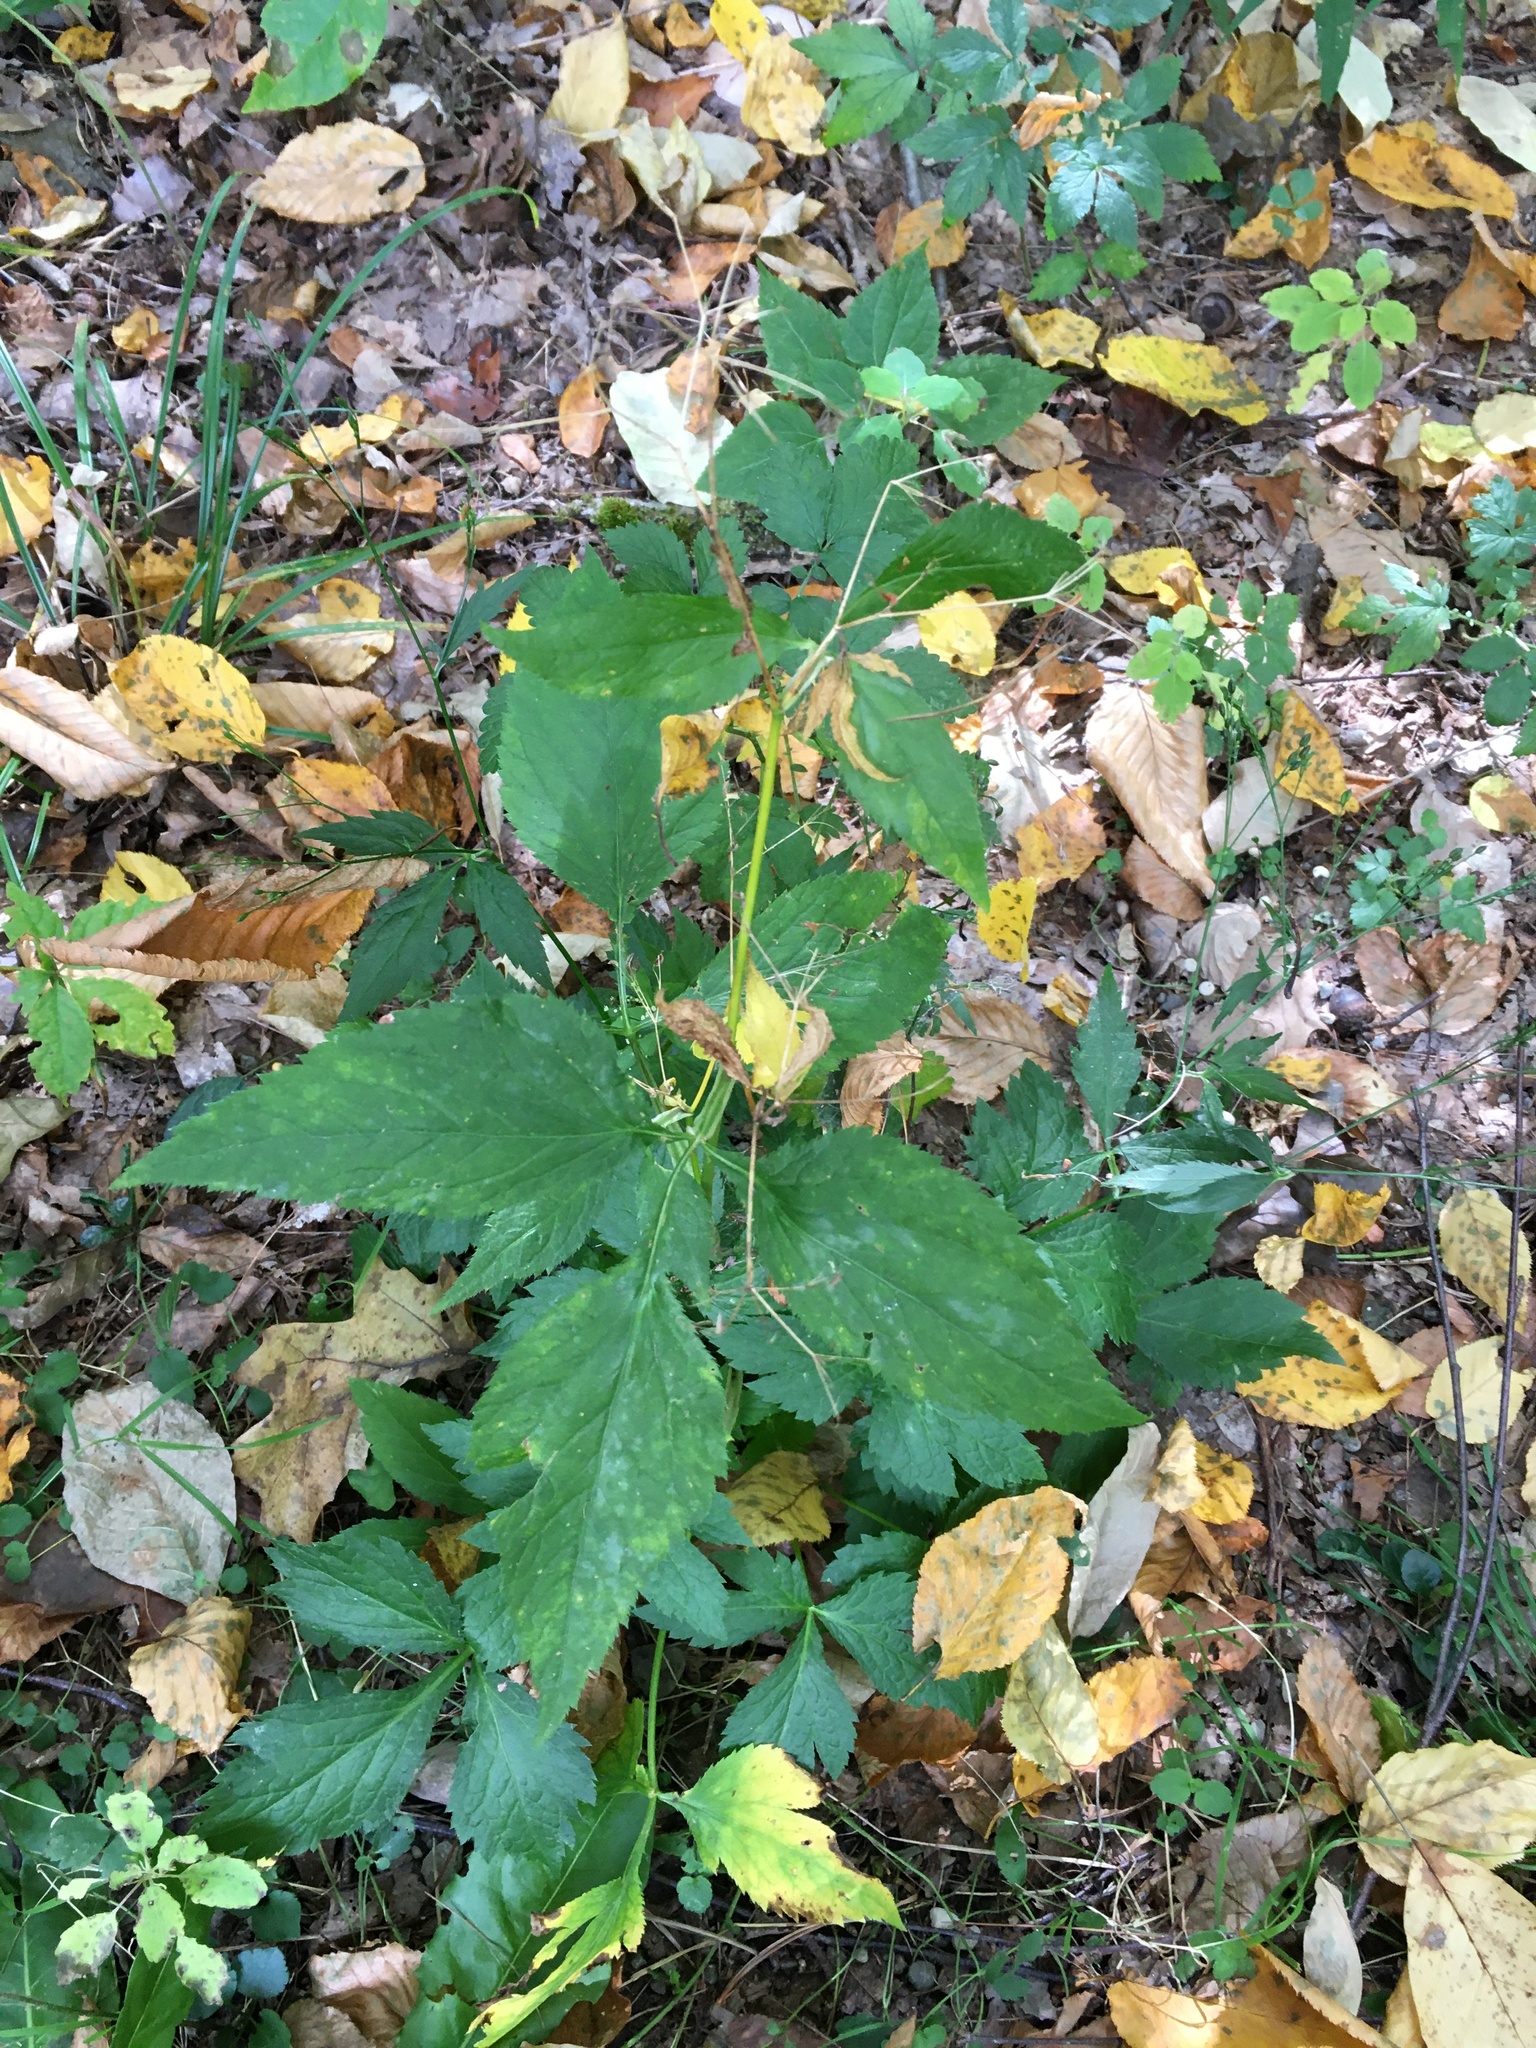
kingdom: Plantae
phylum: Tracheophyta
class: Magnoliopsida
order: Apiales
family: Apiaceae
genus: Cryptotaenia
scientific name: Cryptotaenia canadensis
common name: Honewort
